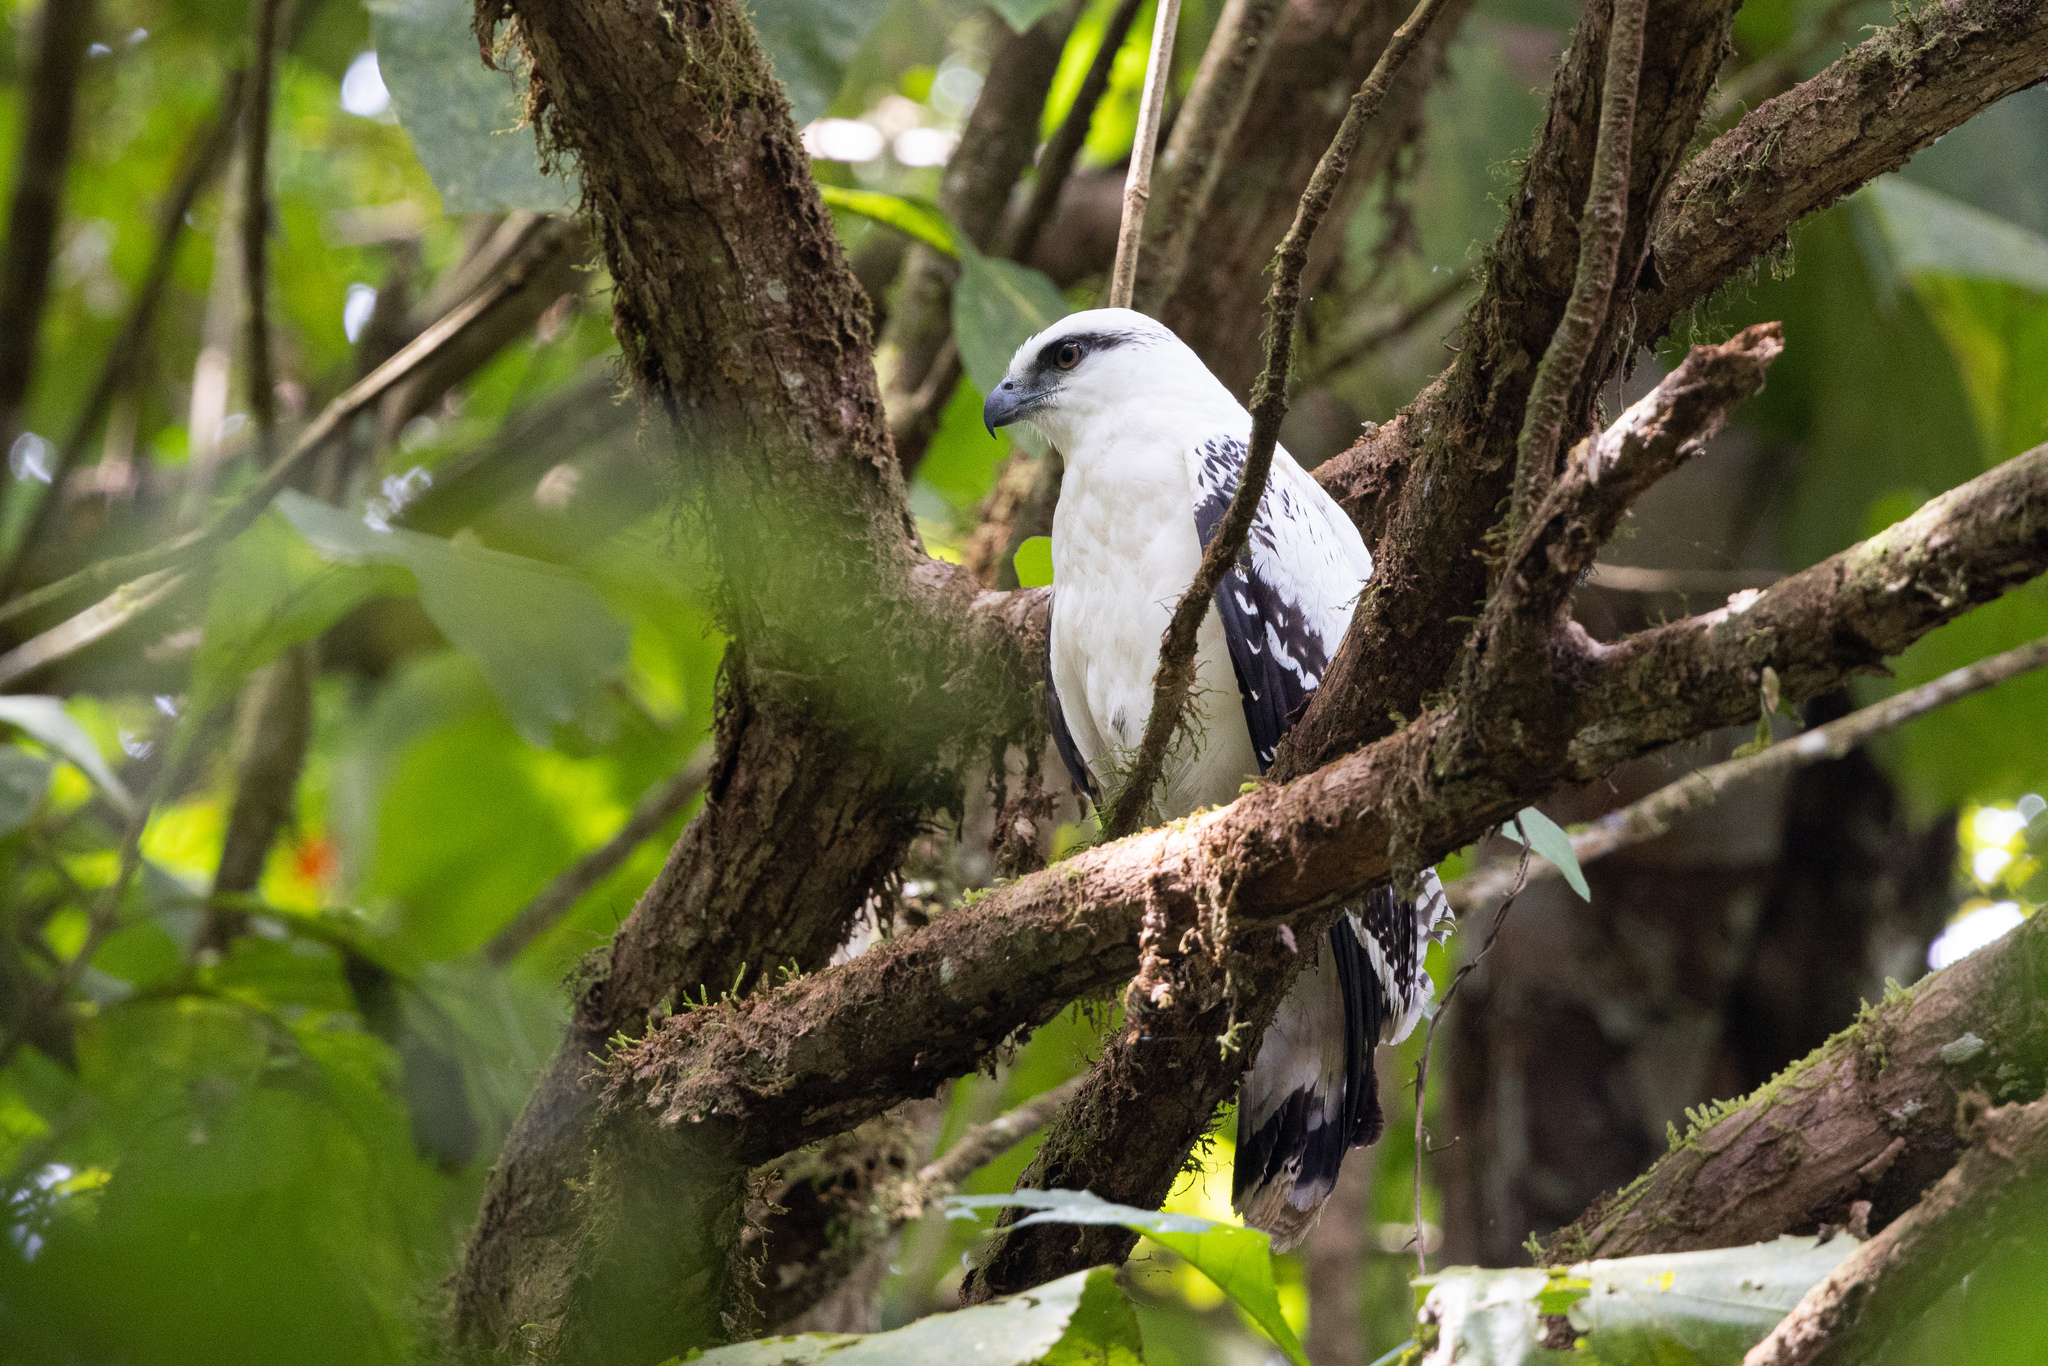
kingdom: Animalia
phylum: Chordata
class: Aves
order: Accipitriformes
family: Accipitridae
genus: Leucopternis
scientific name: Leucopternis albicollis
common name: White hawk
